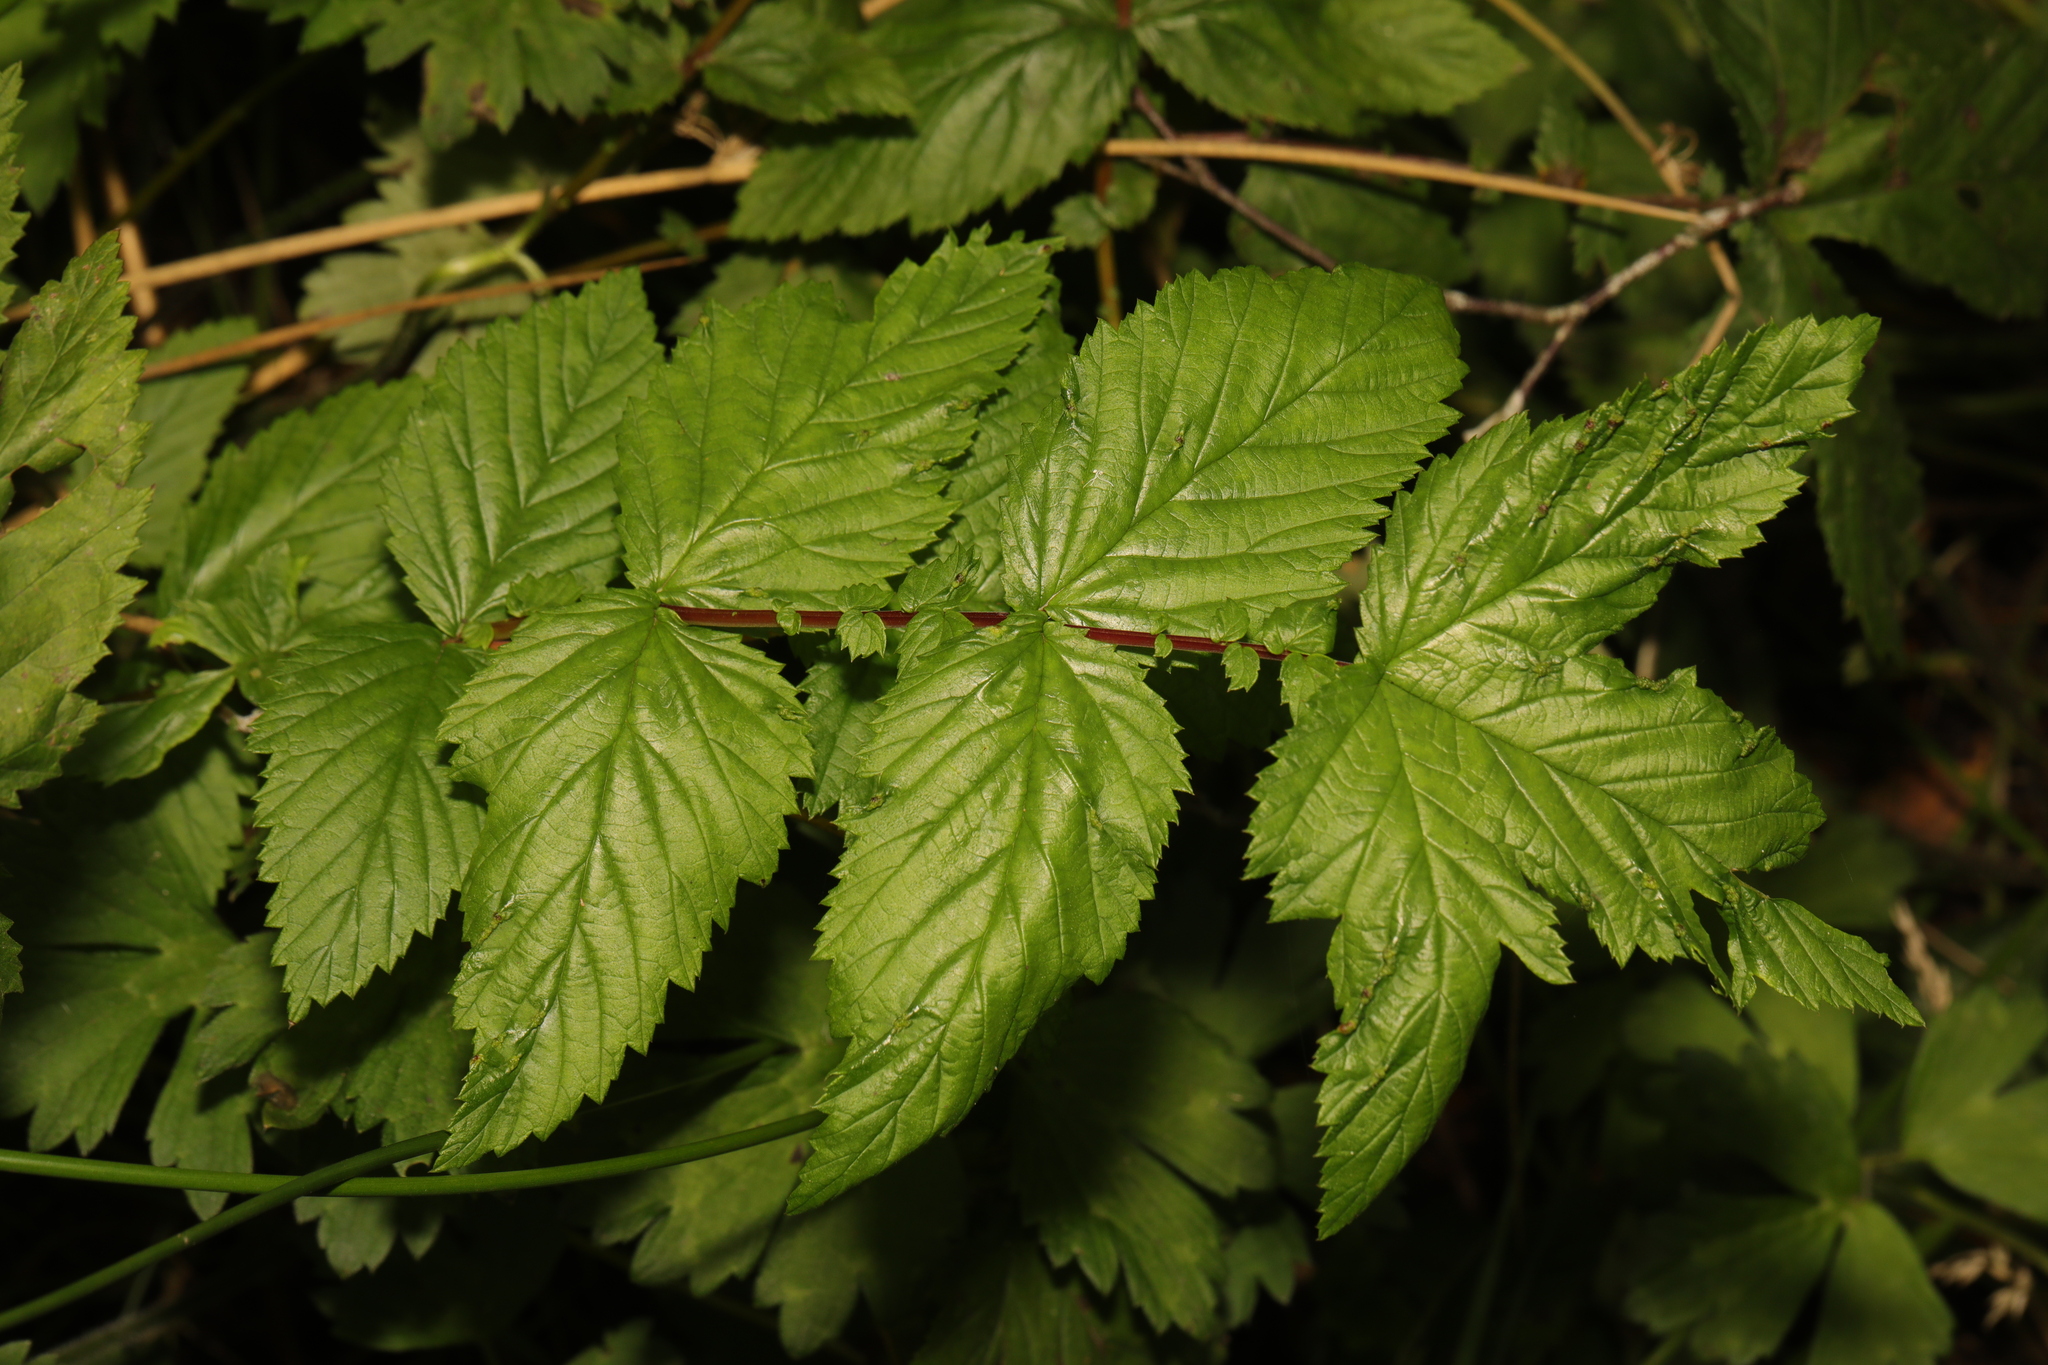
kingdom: Plantae
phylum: Tracheophyta
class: Magnoliopsida
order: Rosales
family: Rosaceae
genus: Filipendula
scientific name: Filipendula ulmaria
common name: Meadowsweet
